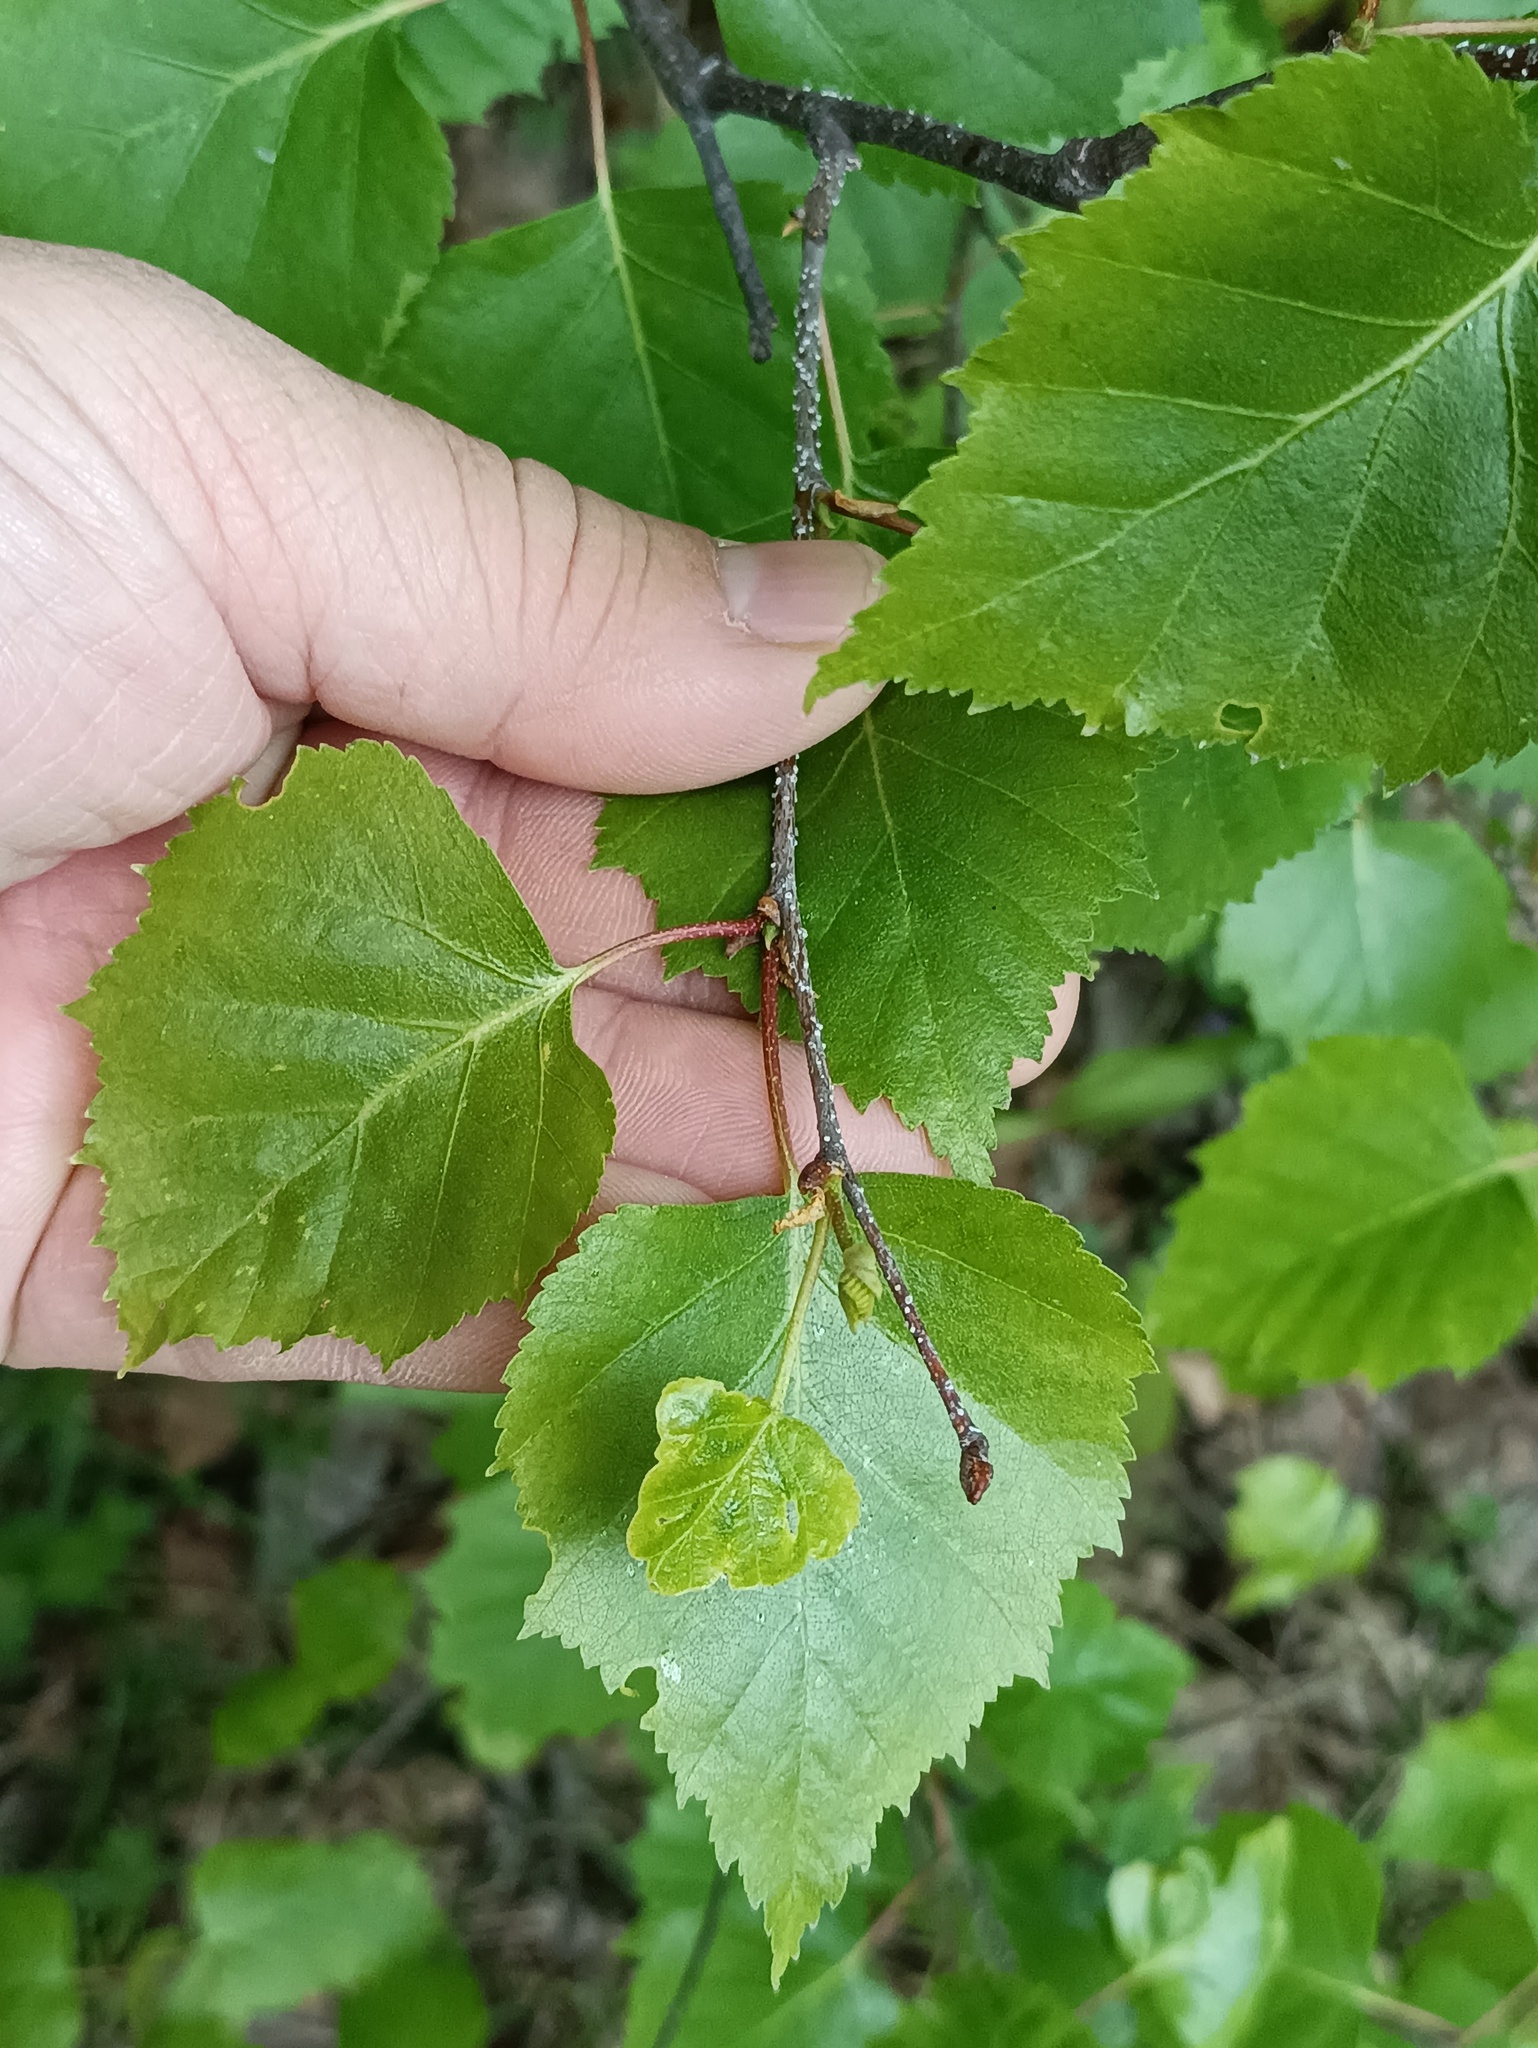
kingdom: Plantae
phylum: Tracheophyta
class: Magnoliopsida
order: Fagales
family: Betulaceae
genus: Betula
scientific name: Betula pendula
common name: Silver birch
